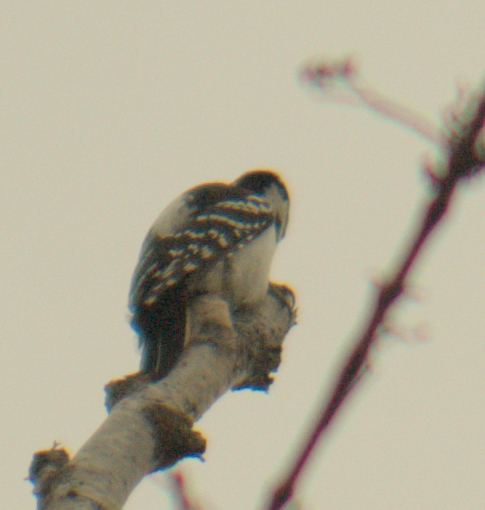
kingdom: Animalia
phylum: Chordata
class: Aves
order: Piciformes
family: Picidae
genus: Leuconotopicus
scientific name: Leuconotopicus villosus
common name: Hairy woodpecker
